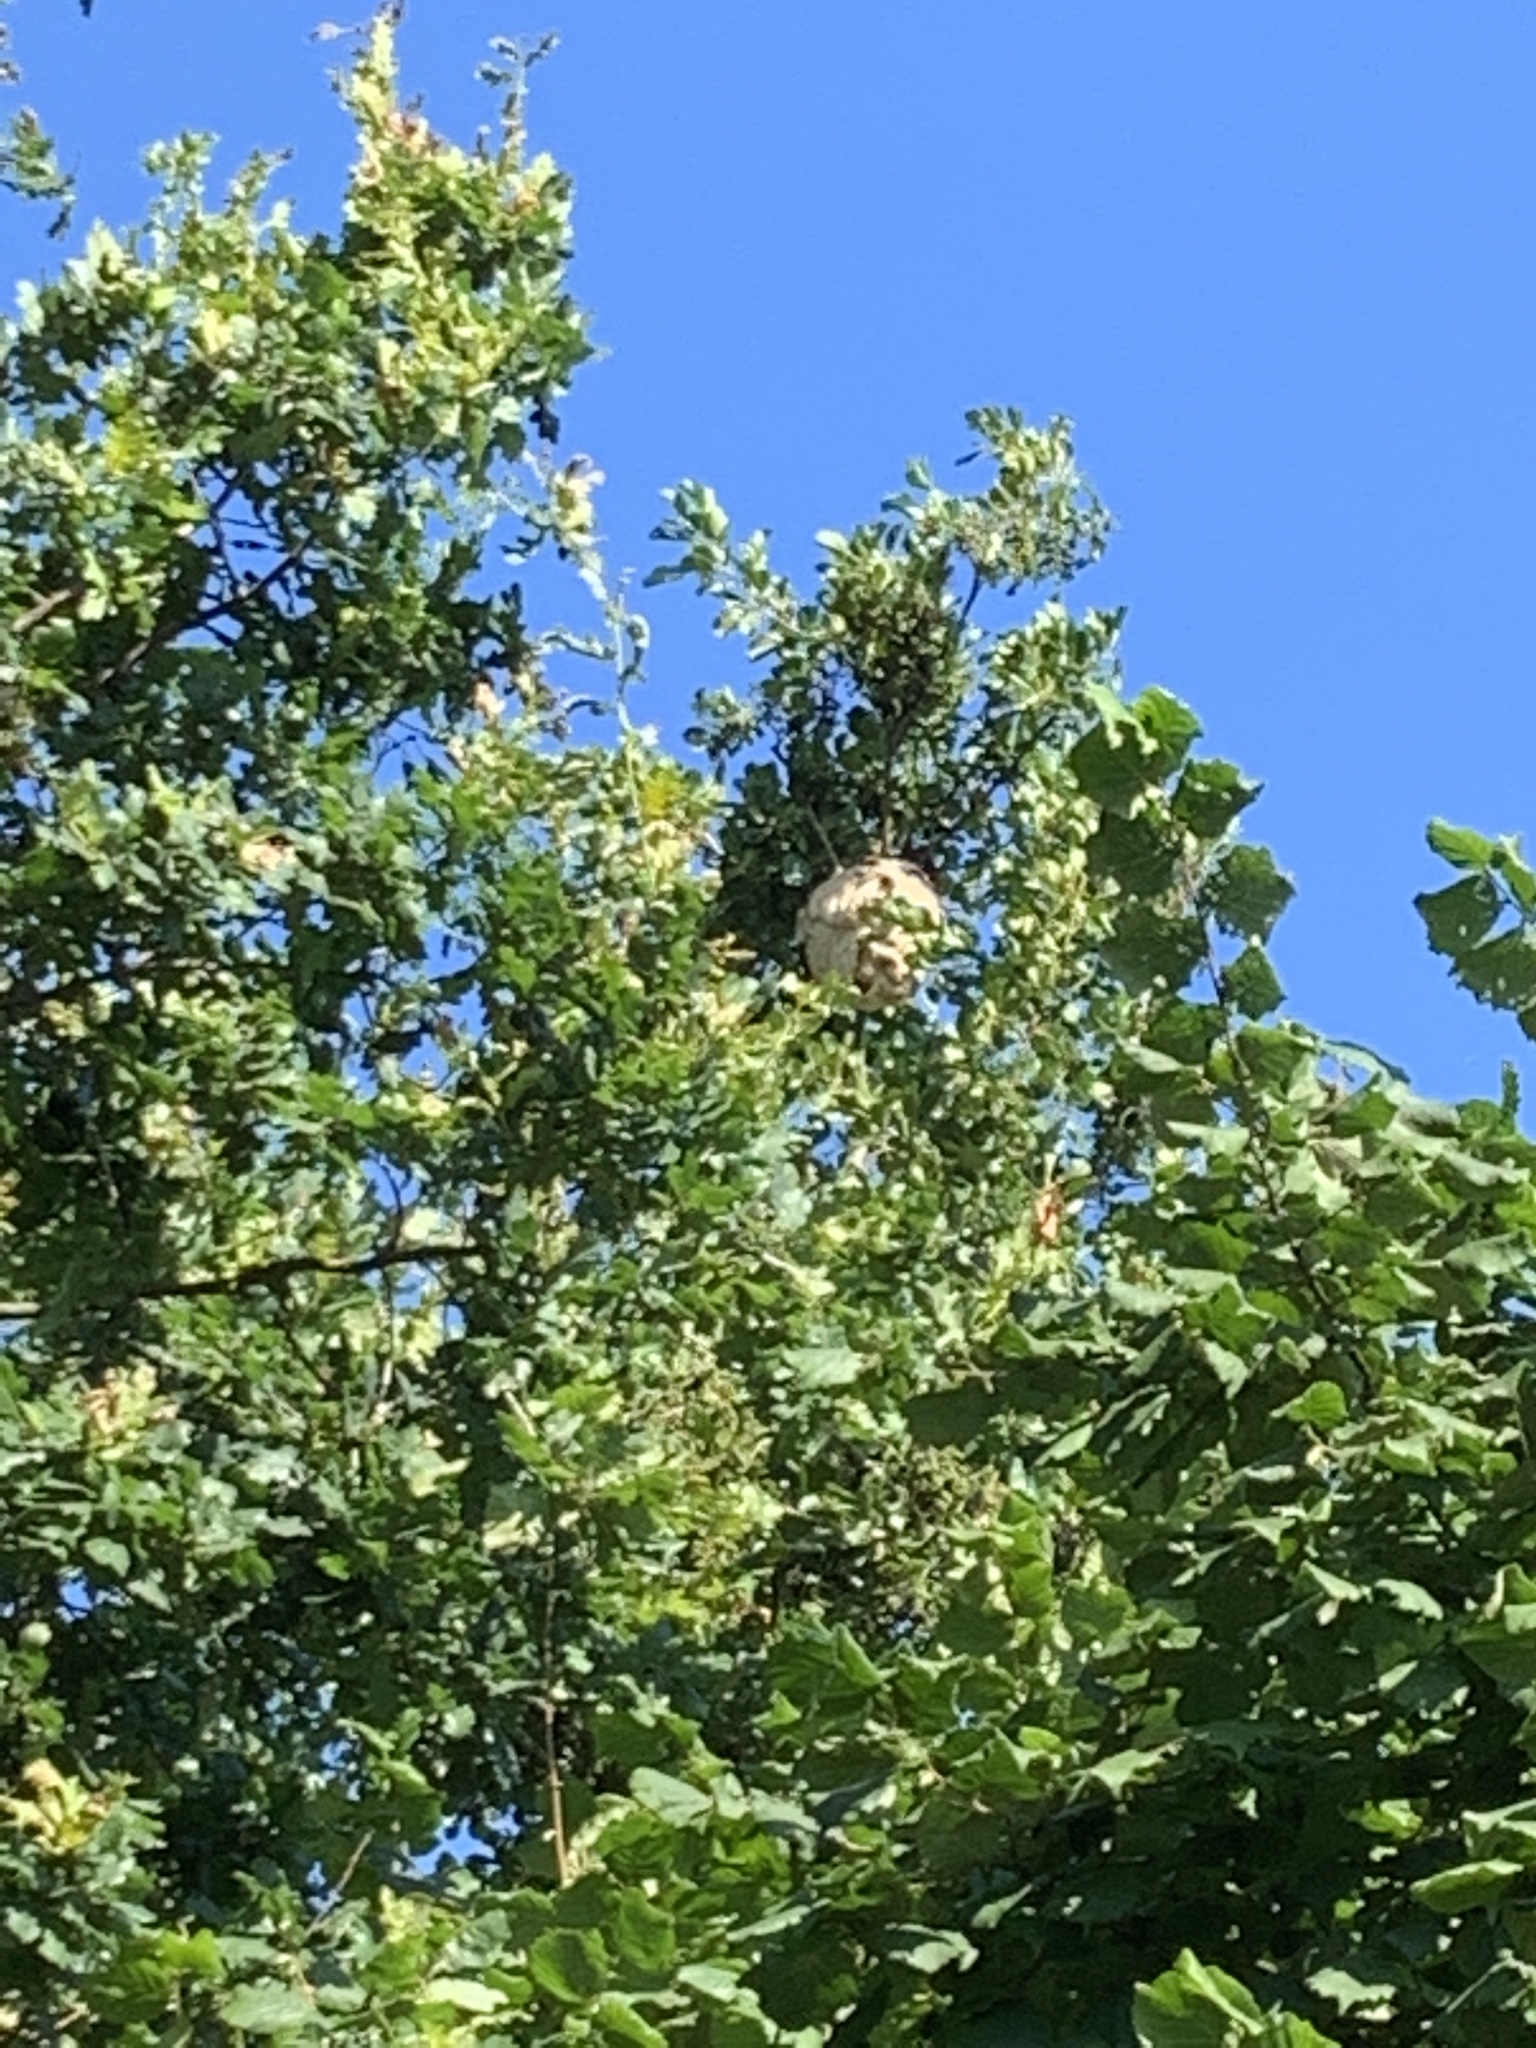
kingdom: Animalia
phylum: Arthropoda
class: Insecta
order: Hymenoptera
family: Vespidae
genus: Vespa
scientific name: Vespa velutina
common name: Asian hornet
